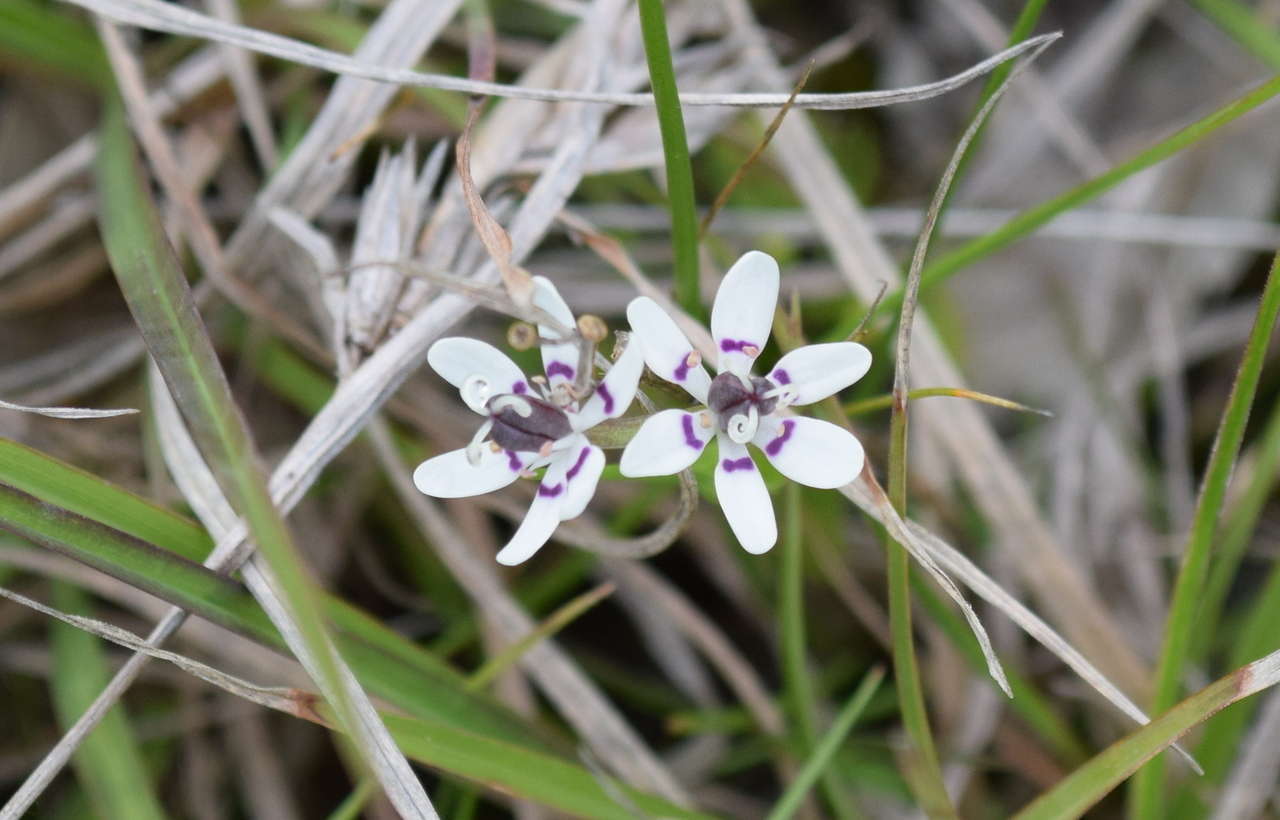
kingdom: Plantae
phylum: Tracheophyta
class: Liliopsida
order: Liliales
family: Colchicaceae
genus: Wurmbea
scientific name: Wurmbea dioica
